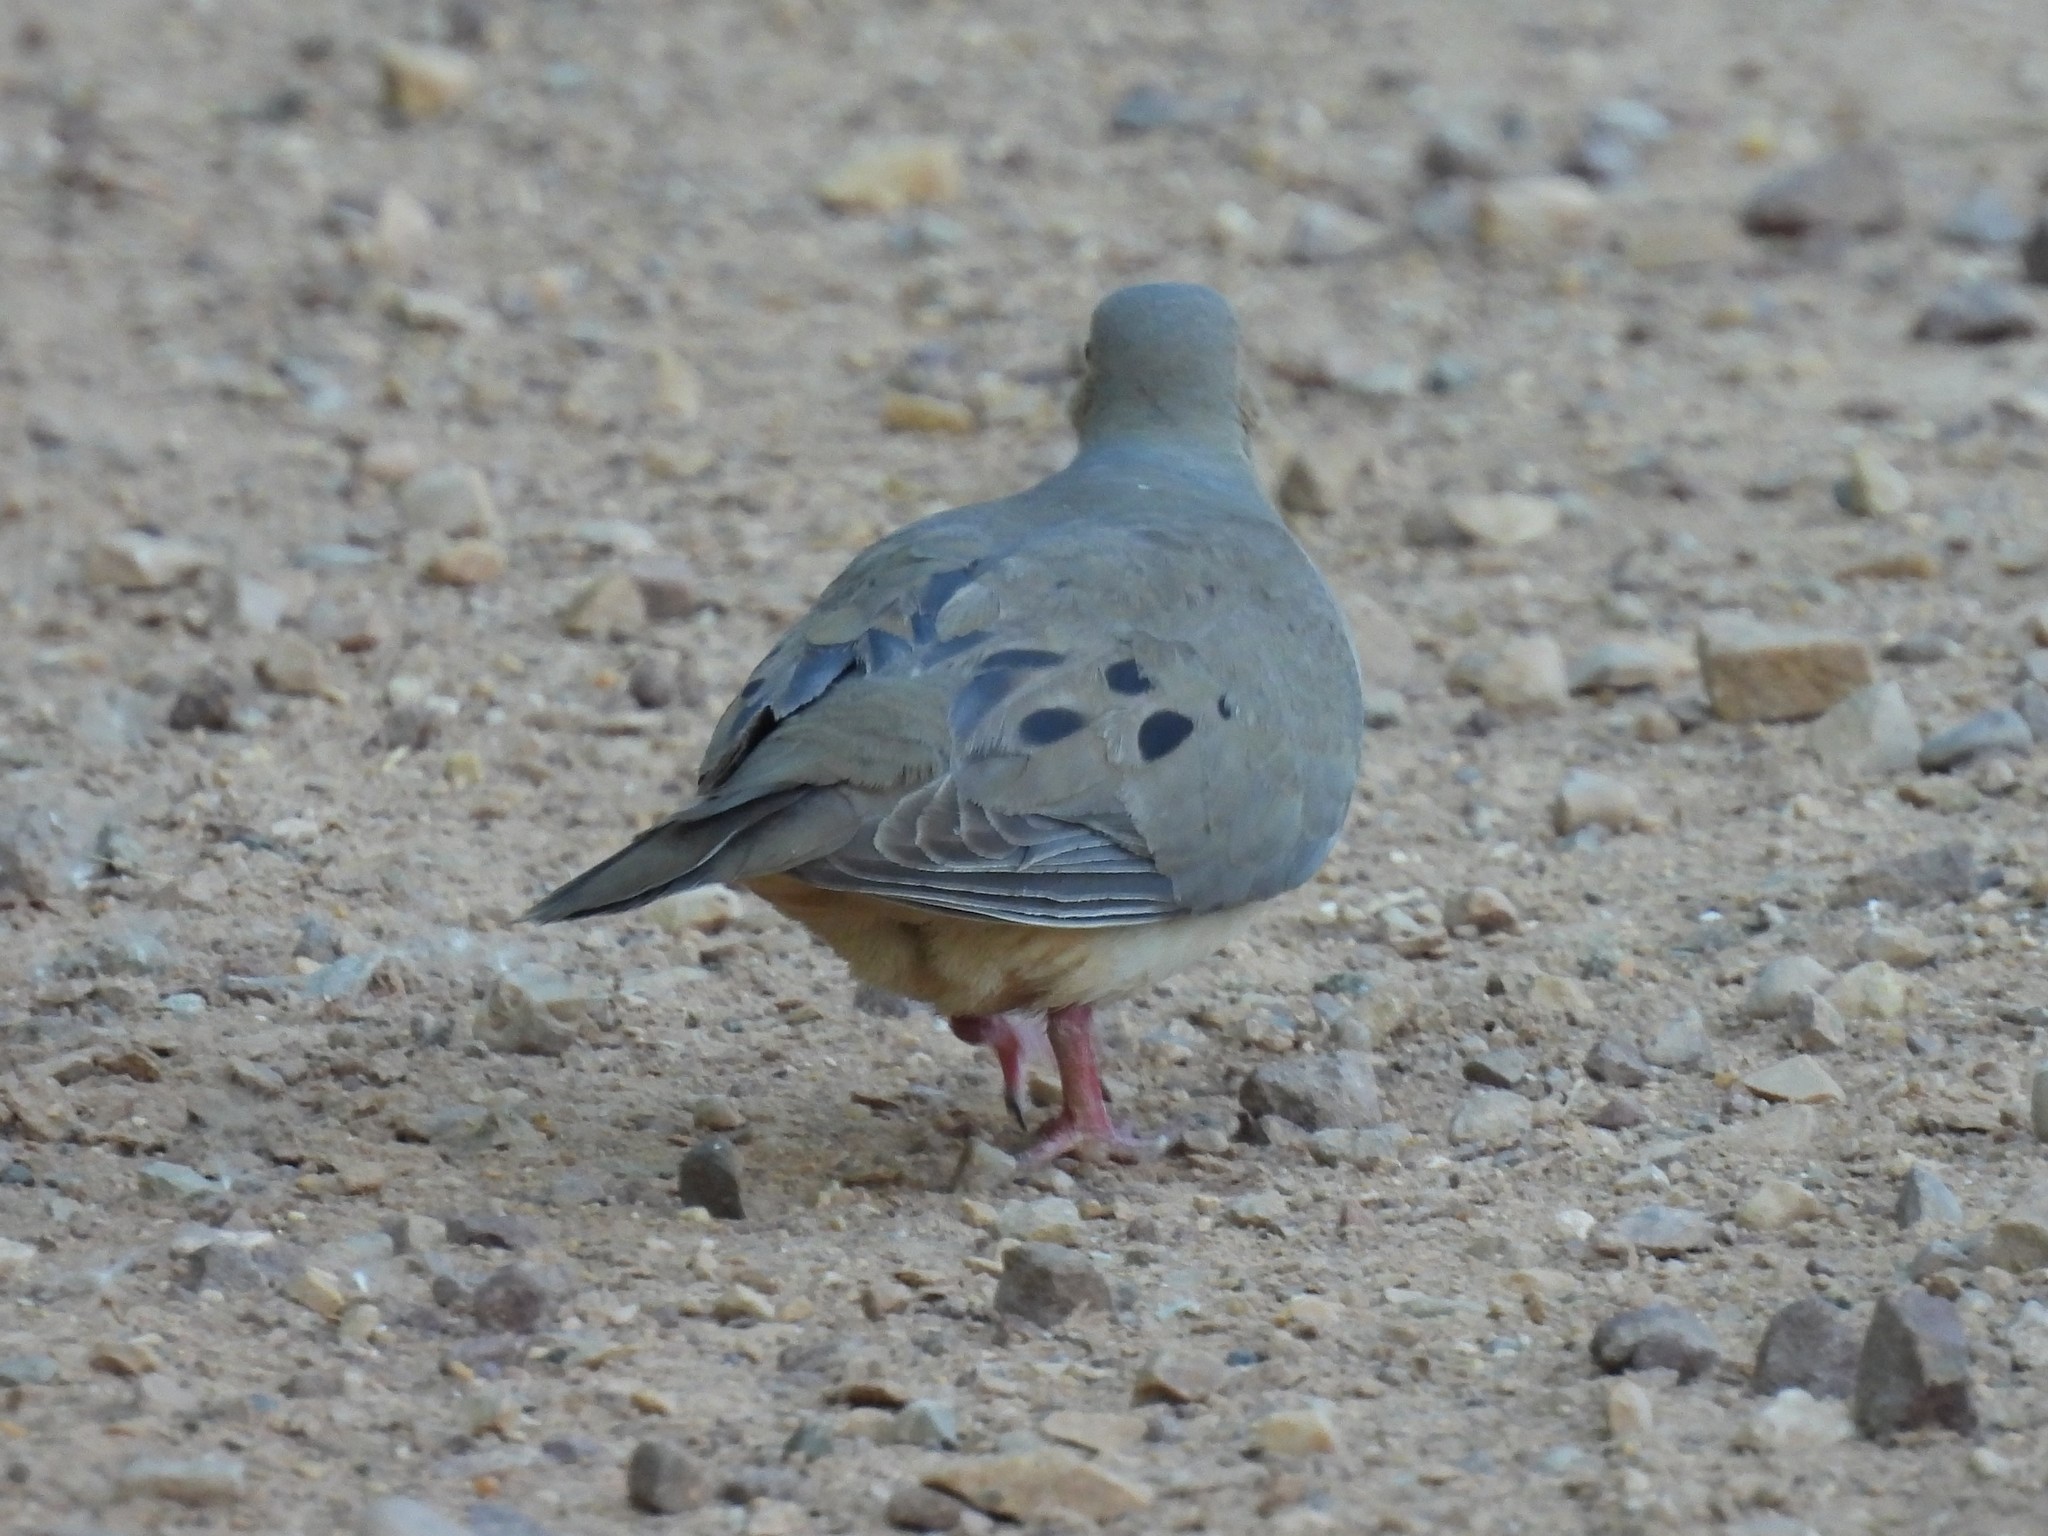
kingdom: Animalia
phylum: Chordata
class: Aves
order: Columbiformes
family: Columbidae
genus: Zenaida
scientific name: Zenaida macroura
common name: Mourning dove
